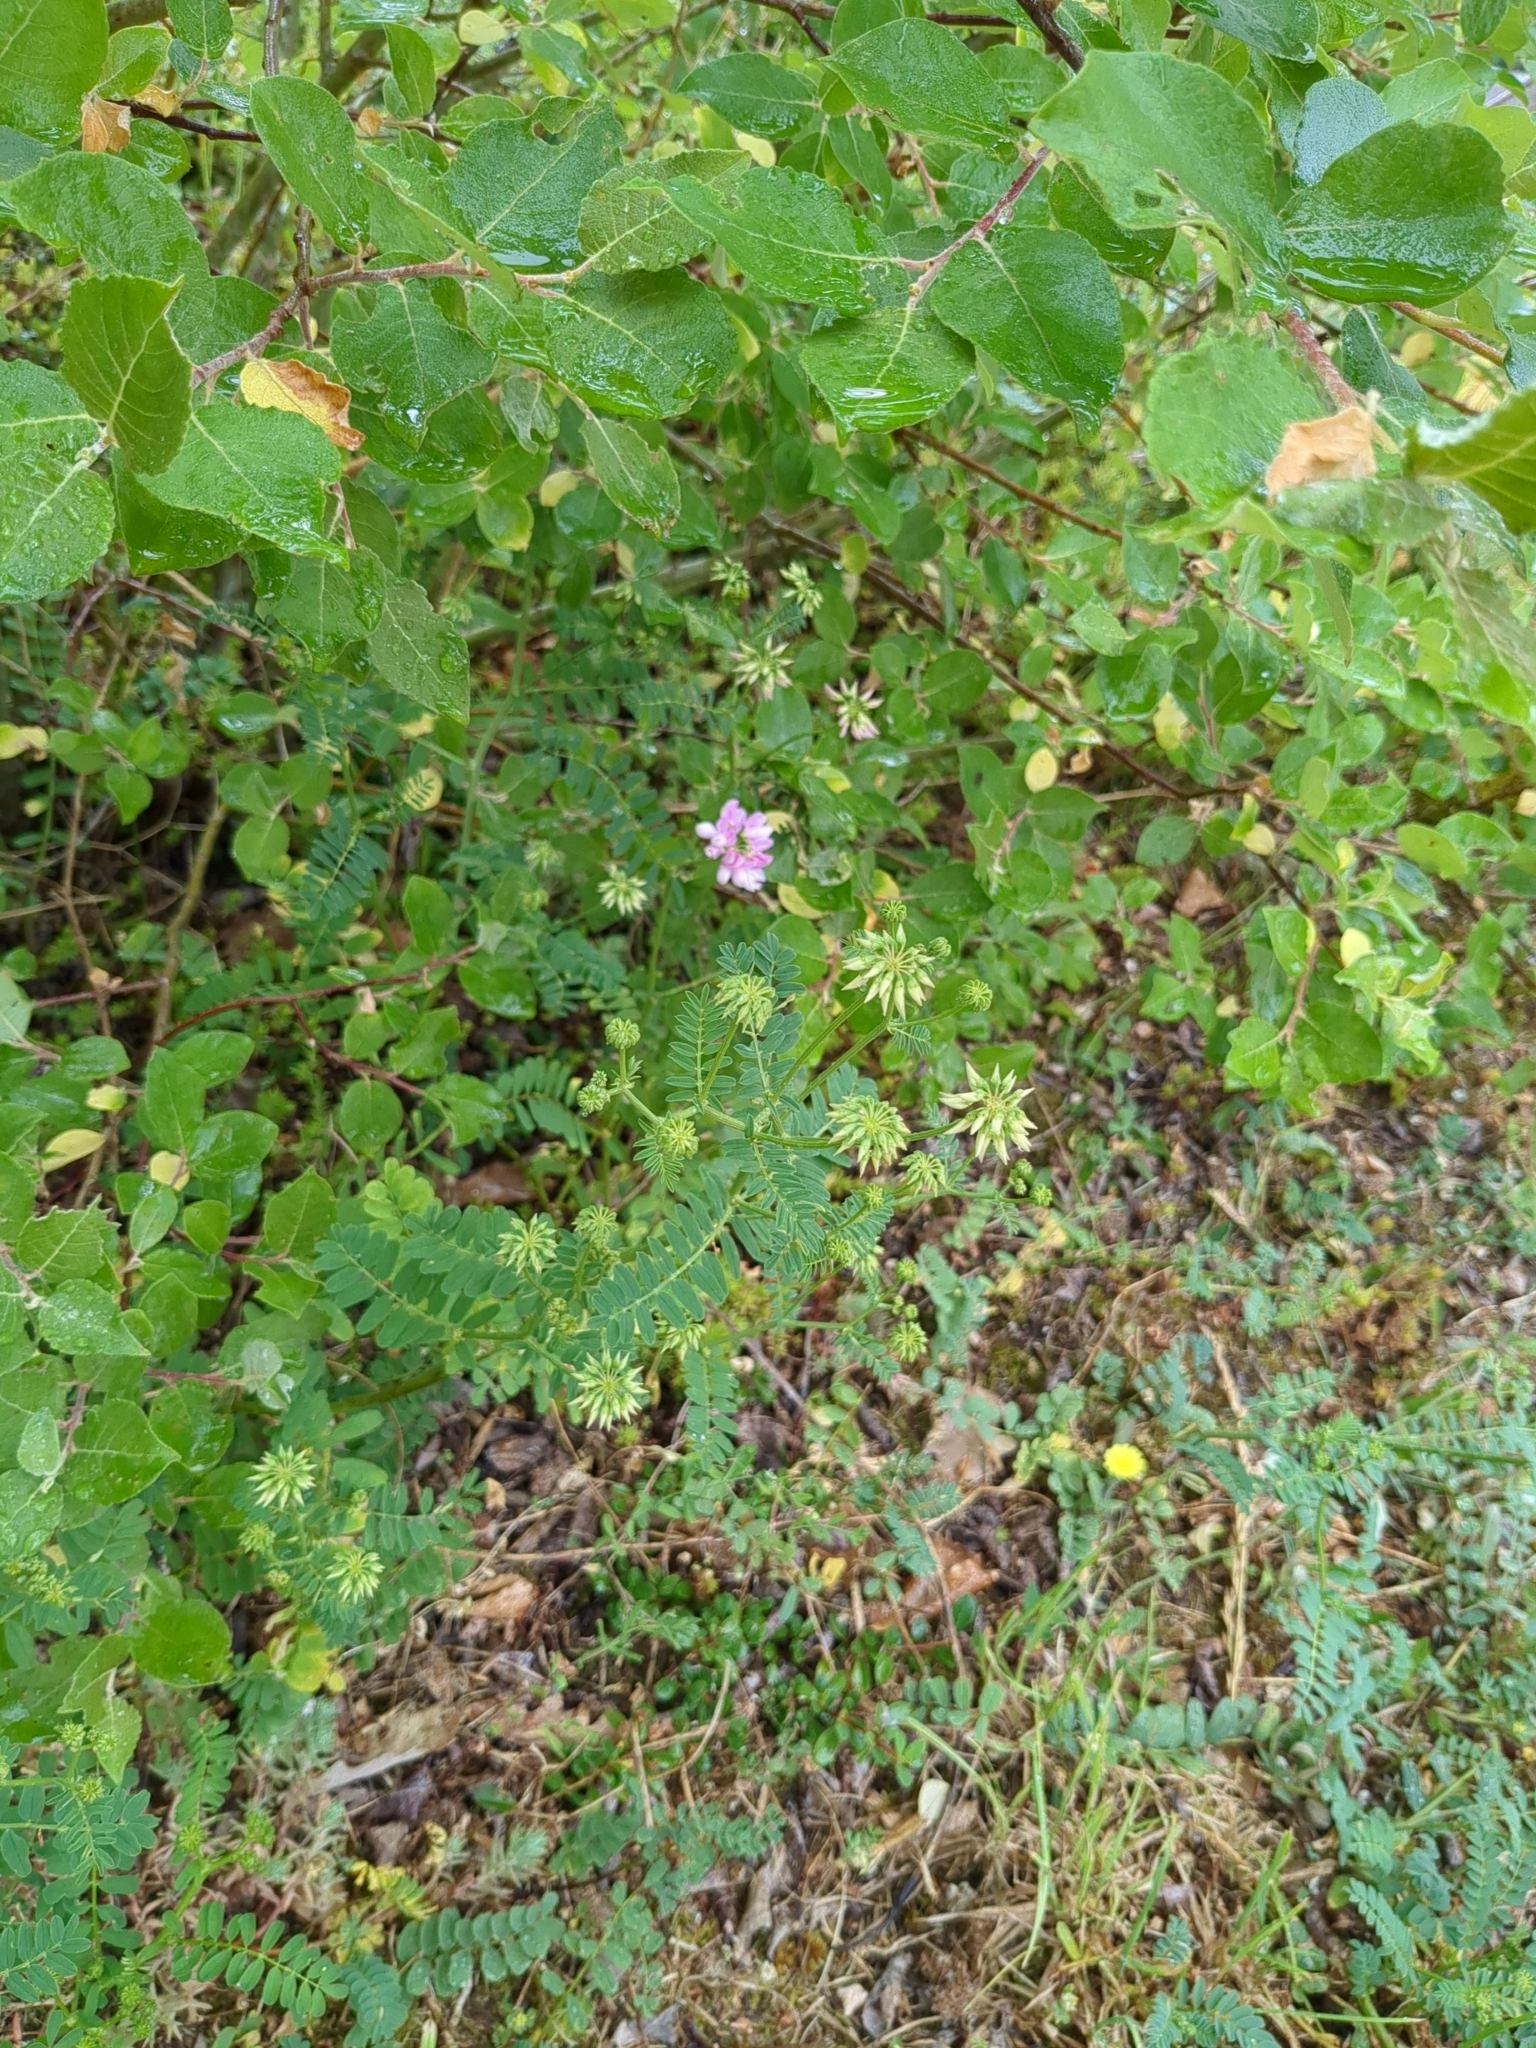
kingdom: Plantae
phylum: Tracheophyta
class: Magnoliopsida
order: Fabales
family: Fabaceae
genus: Coronilla
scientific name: Coronilla varia
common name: Crownvetch
